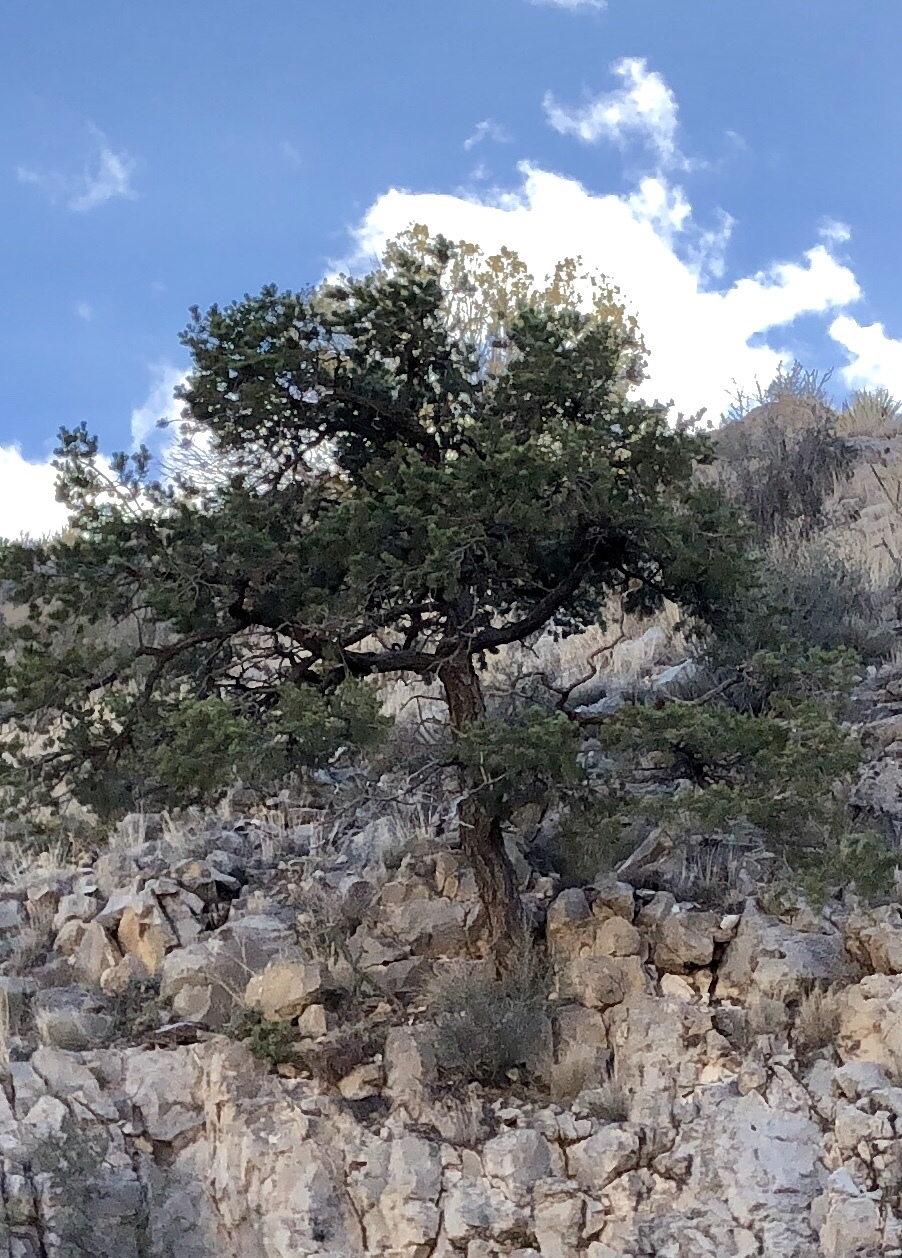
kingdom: Plantae
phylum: Tracheophyta
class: Pinopsida
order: Pinales
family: Pinaceae
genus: Pinus
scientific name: Pinus edulis
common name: Colorado pinyon
